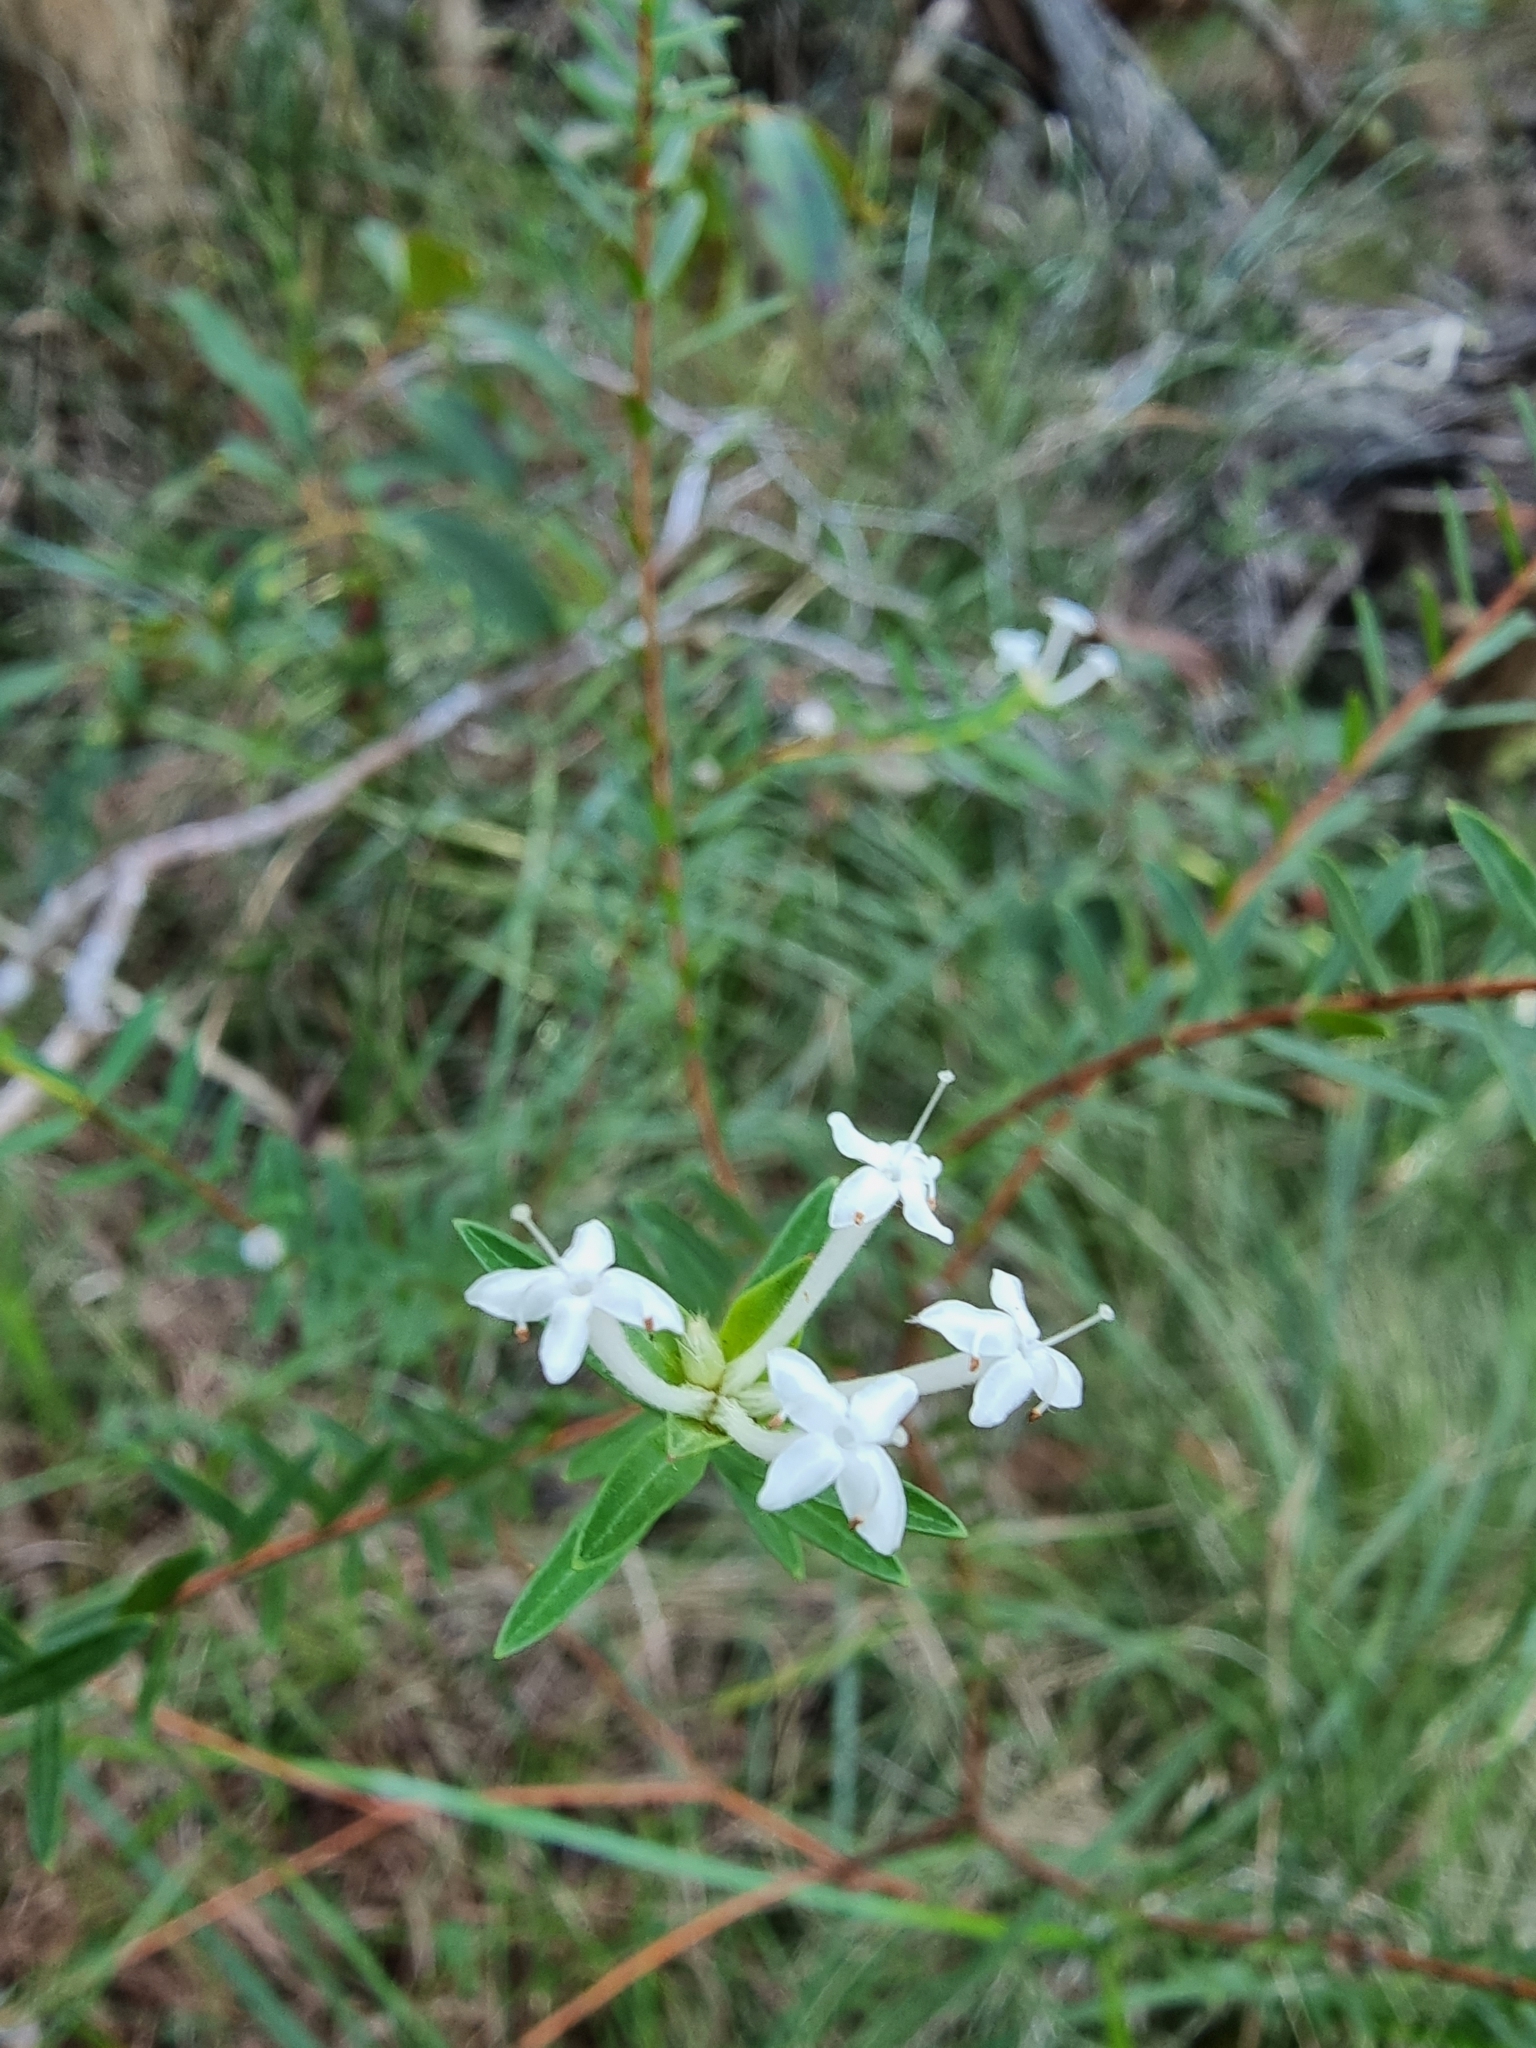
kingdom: Plantae
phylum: Tracheophyta
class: Magnoliopsida
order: Malvales
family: Thymelaeaceae
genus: Pimelea
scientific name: Pimelea linifolia
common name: Queen-of-the-bush
